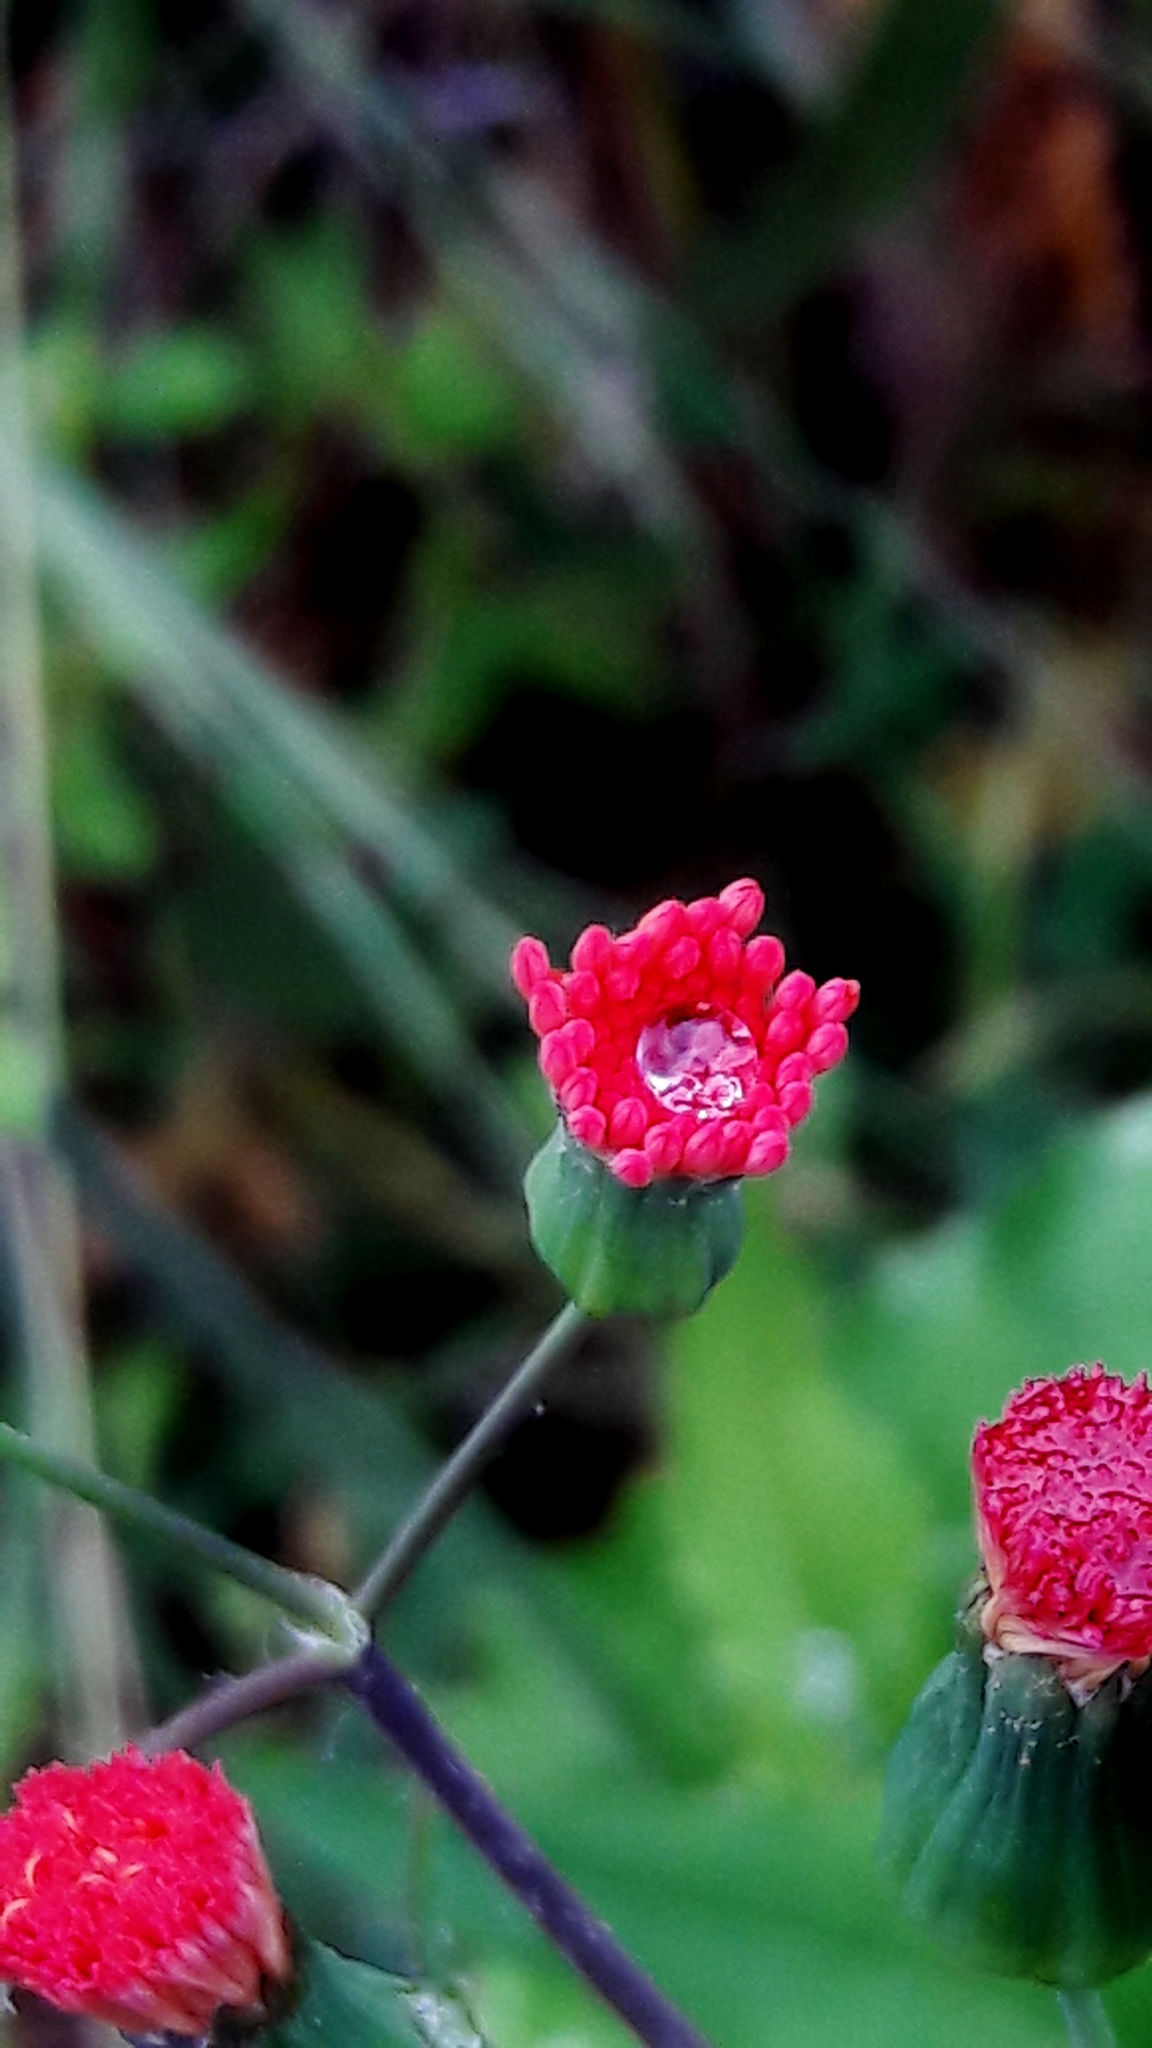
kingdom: Plantae
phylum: Tracheophyta
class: Magnoliopsida
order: Asterales
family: Asteraceae
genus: Emilia
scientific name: Emilia fosbergii
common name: Florida tasselflower
